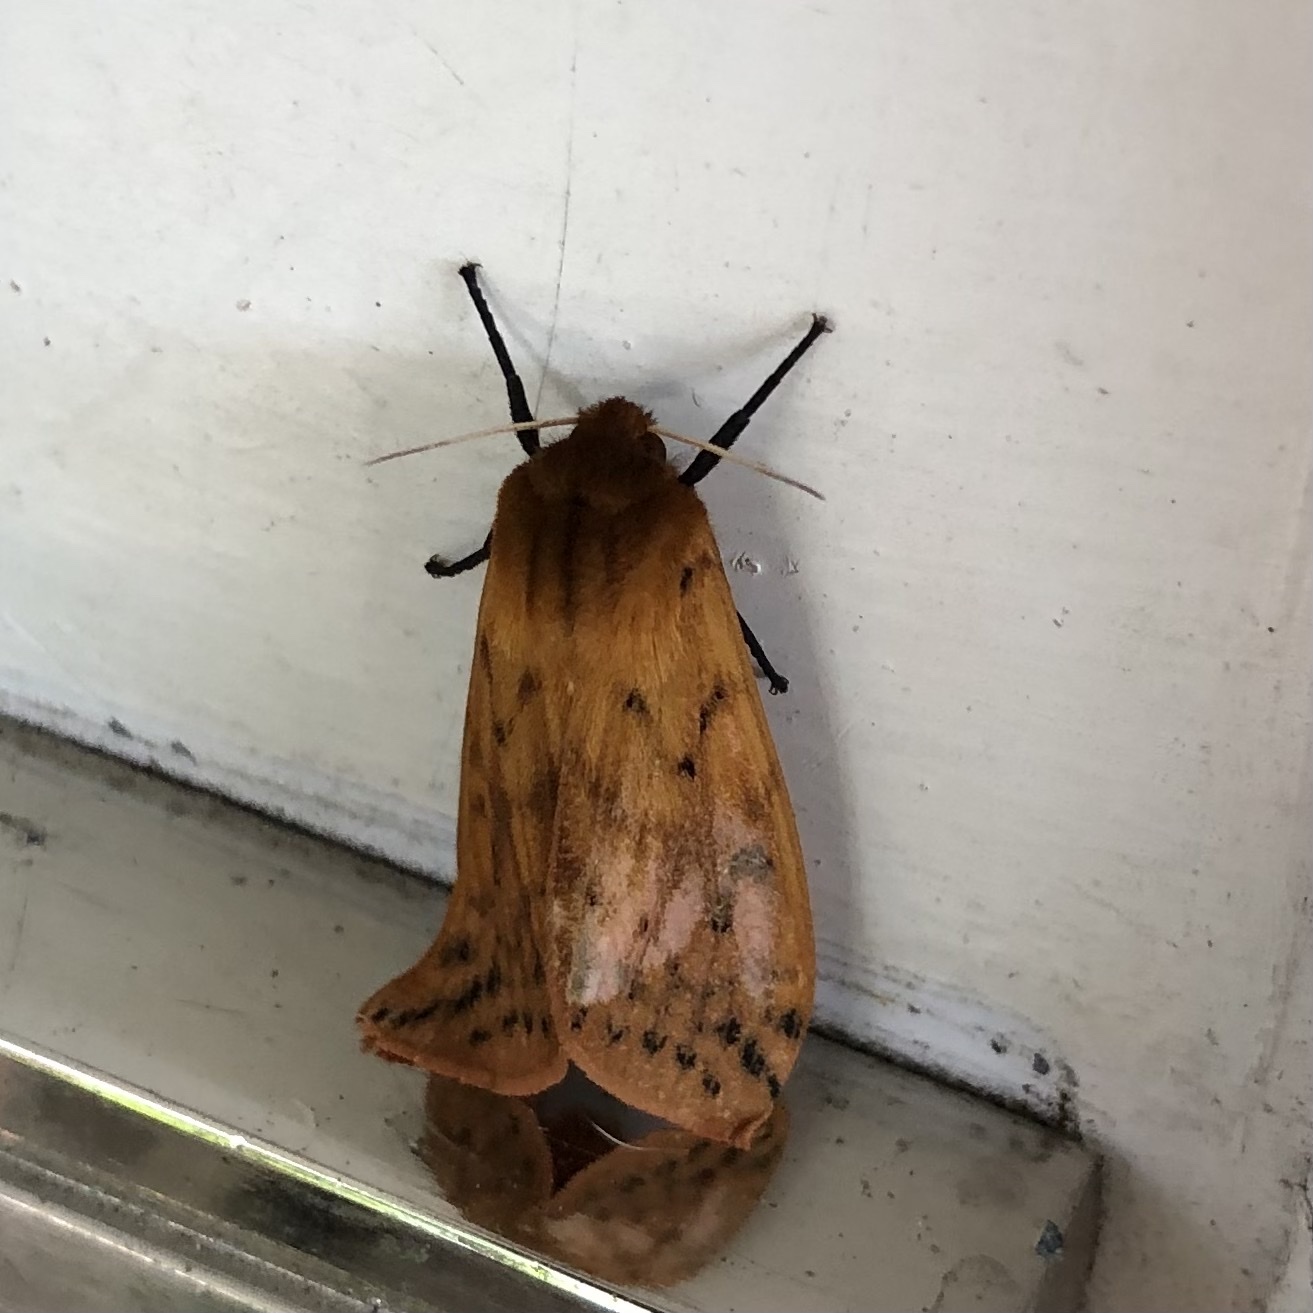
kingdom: Animalia
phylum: Arthropoda
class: Insecta
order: Lepidoptera
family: Erebidae
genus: Pyrrharctia
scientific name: Pyrrharctia isabella
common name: Isabella tiger moth
